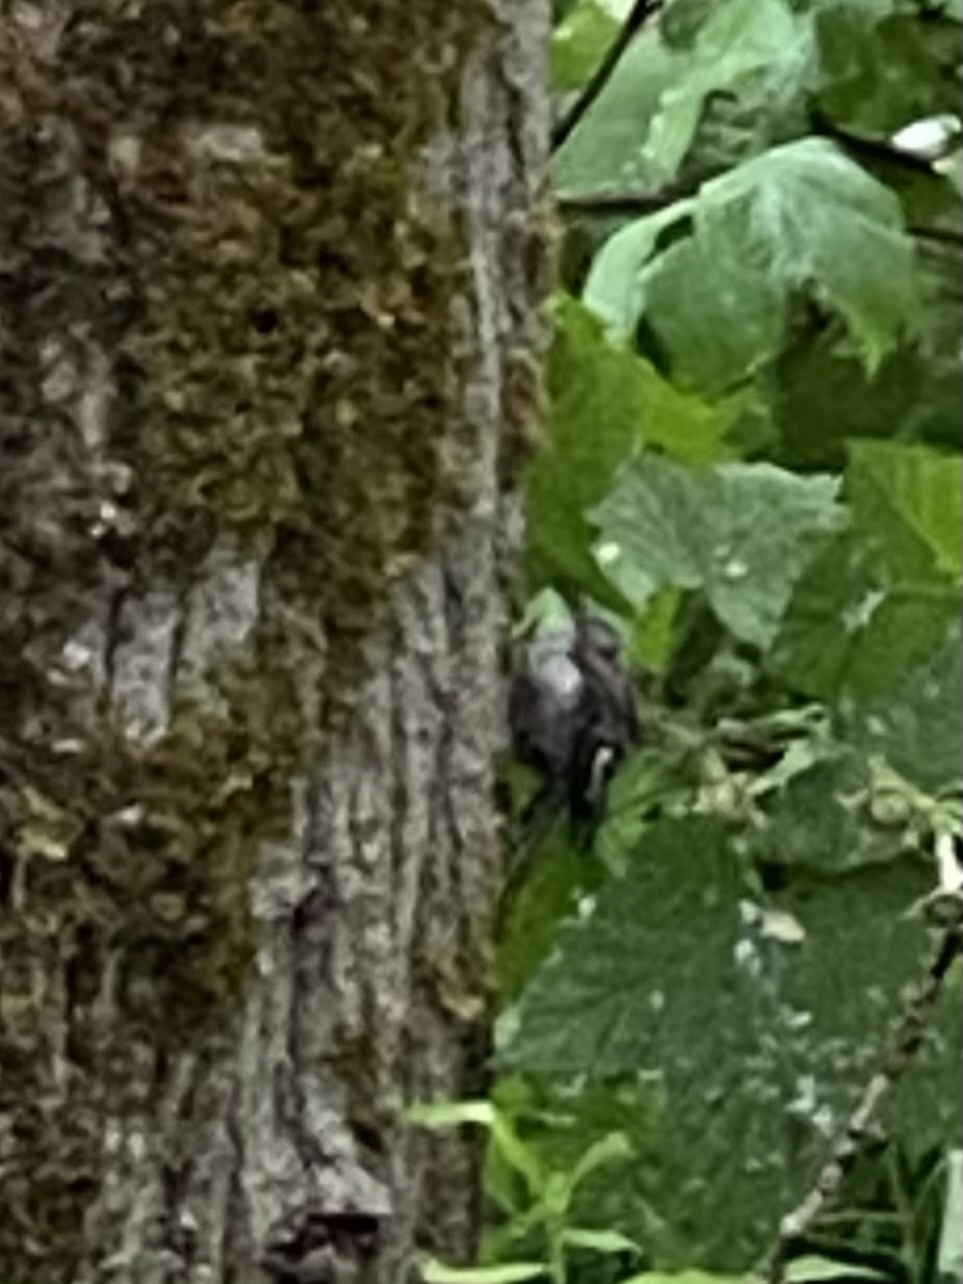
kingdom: Animalia
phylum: Chordata
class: Aves
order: Passeriformes
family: Certhiidae
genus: Certhia
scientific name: Certhia americana
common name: Brown creeper
